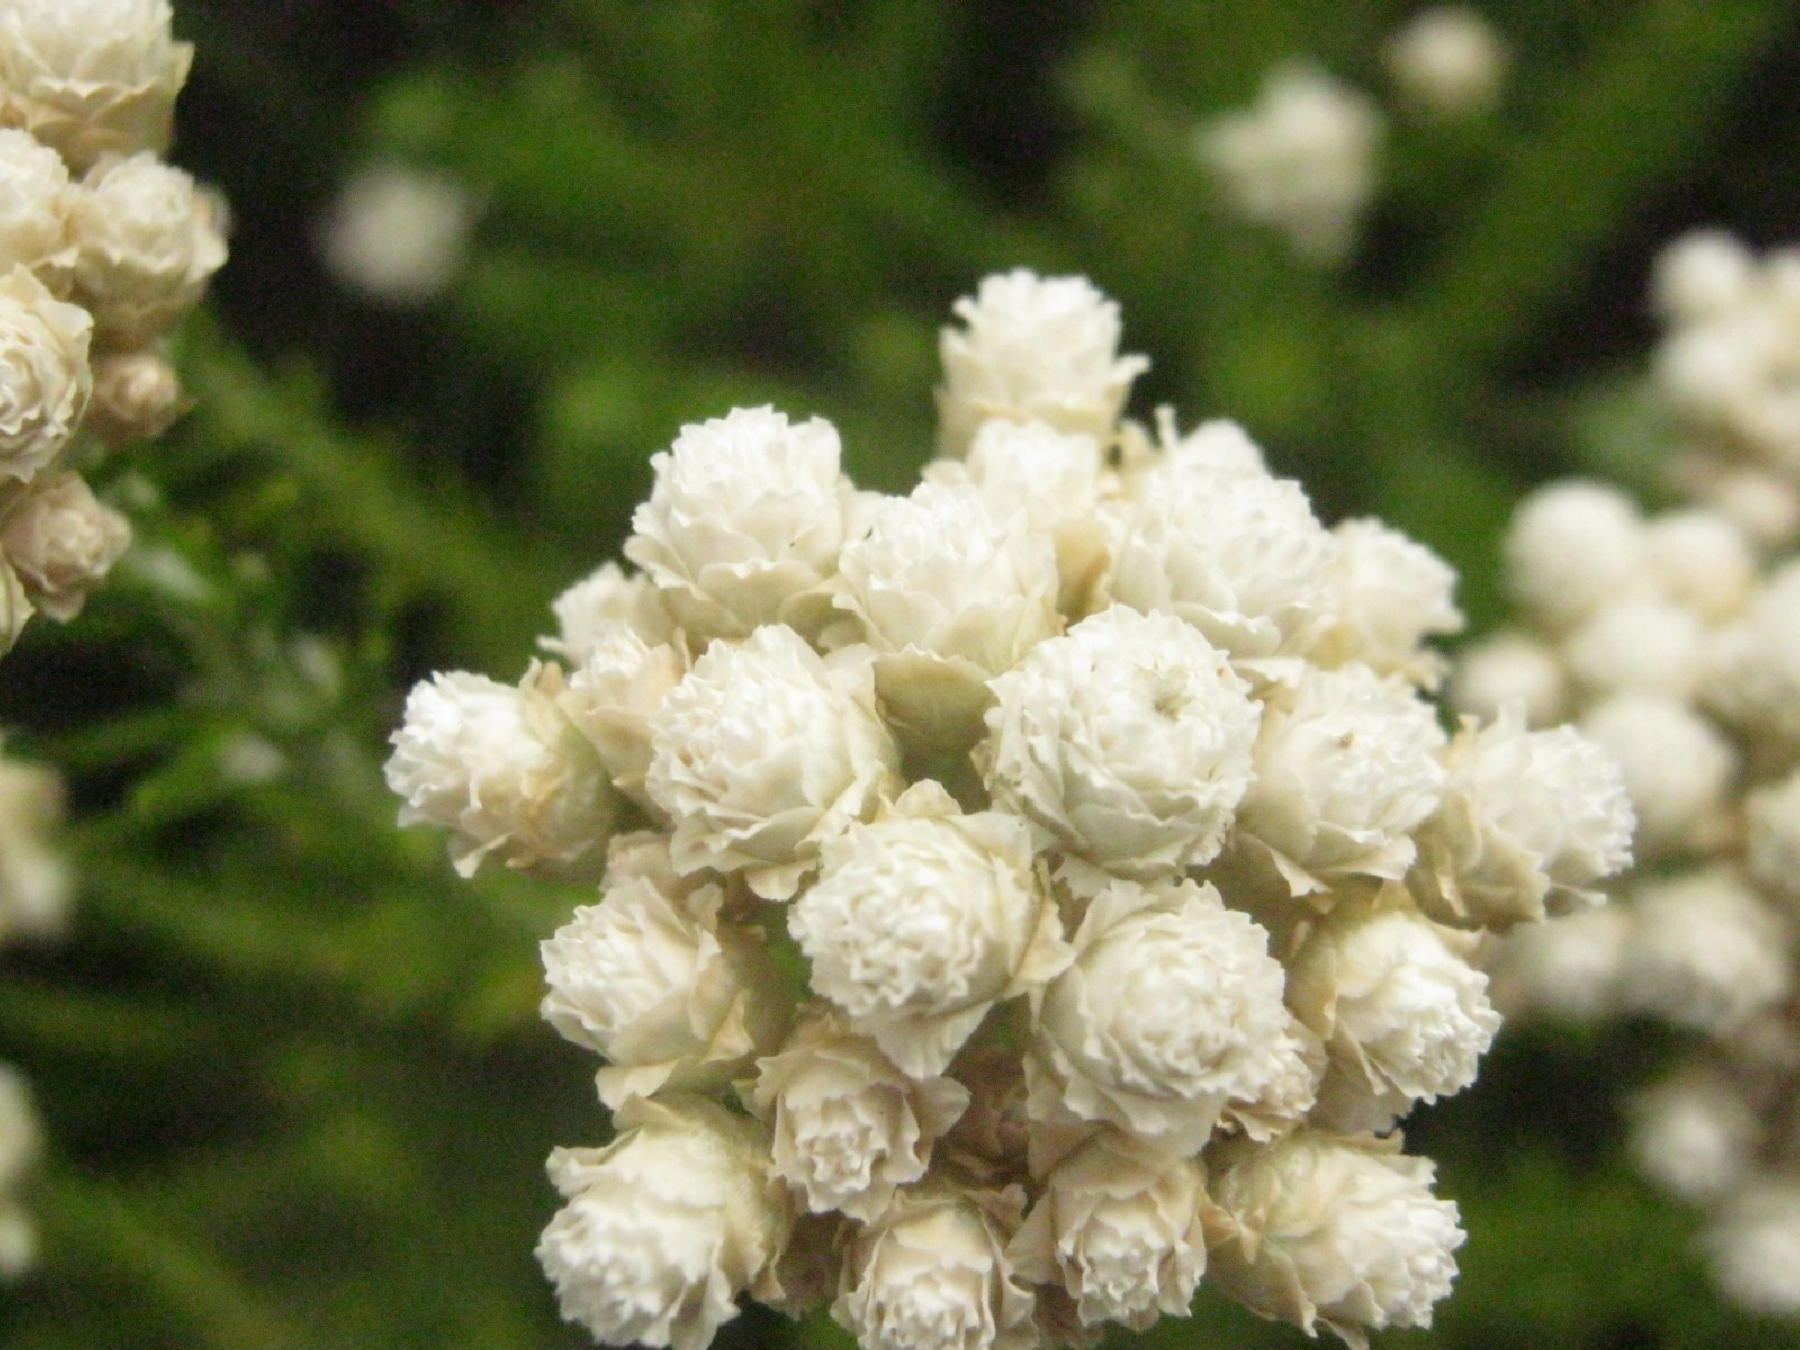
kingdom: Plantae
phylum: Tracheophyta
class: Magnoliopsida
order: Asterales
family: Asteraceae
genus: Helichrysum
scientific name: Helichrysum teretifolium
